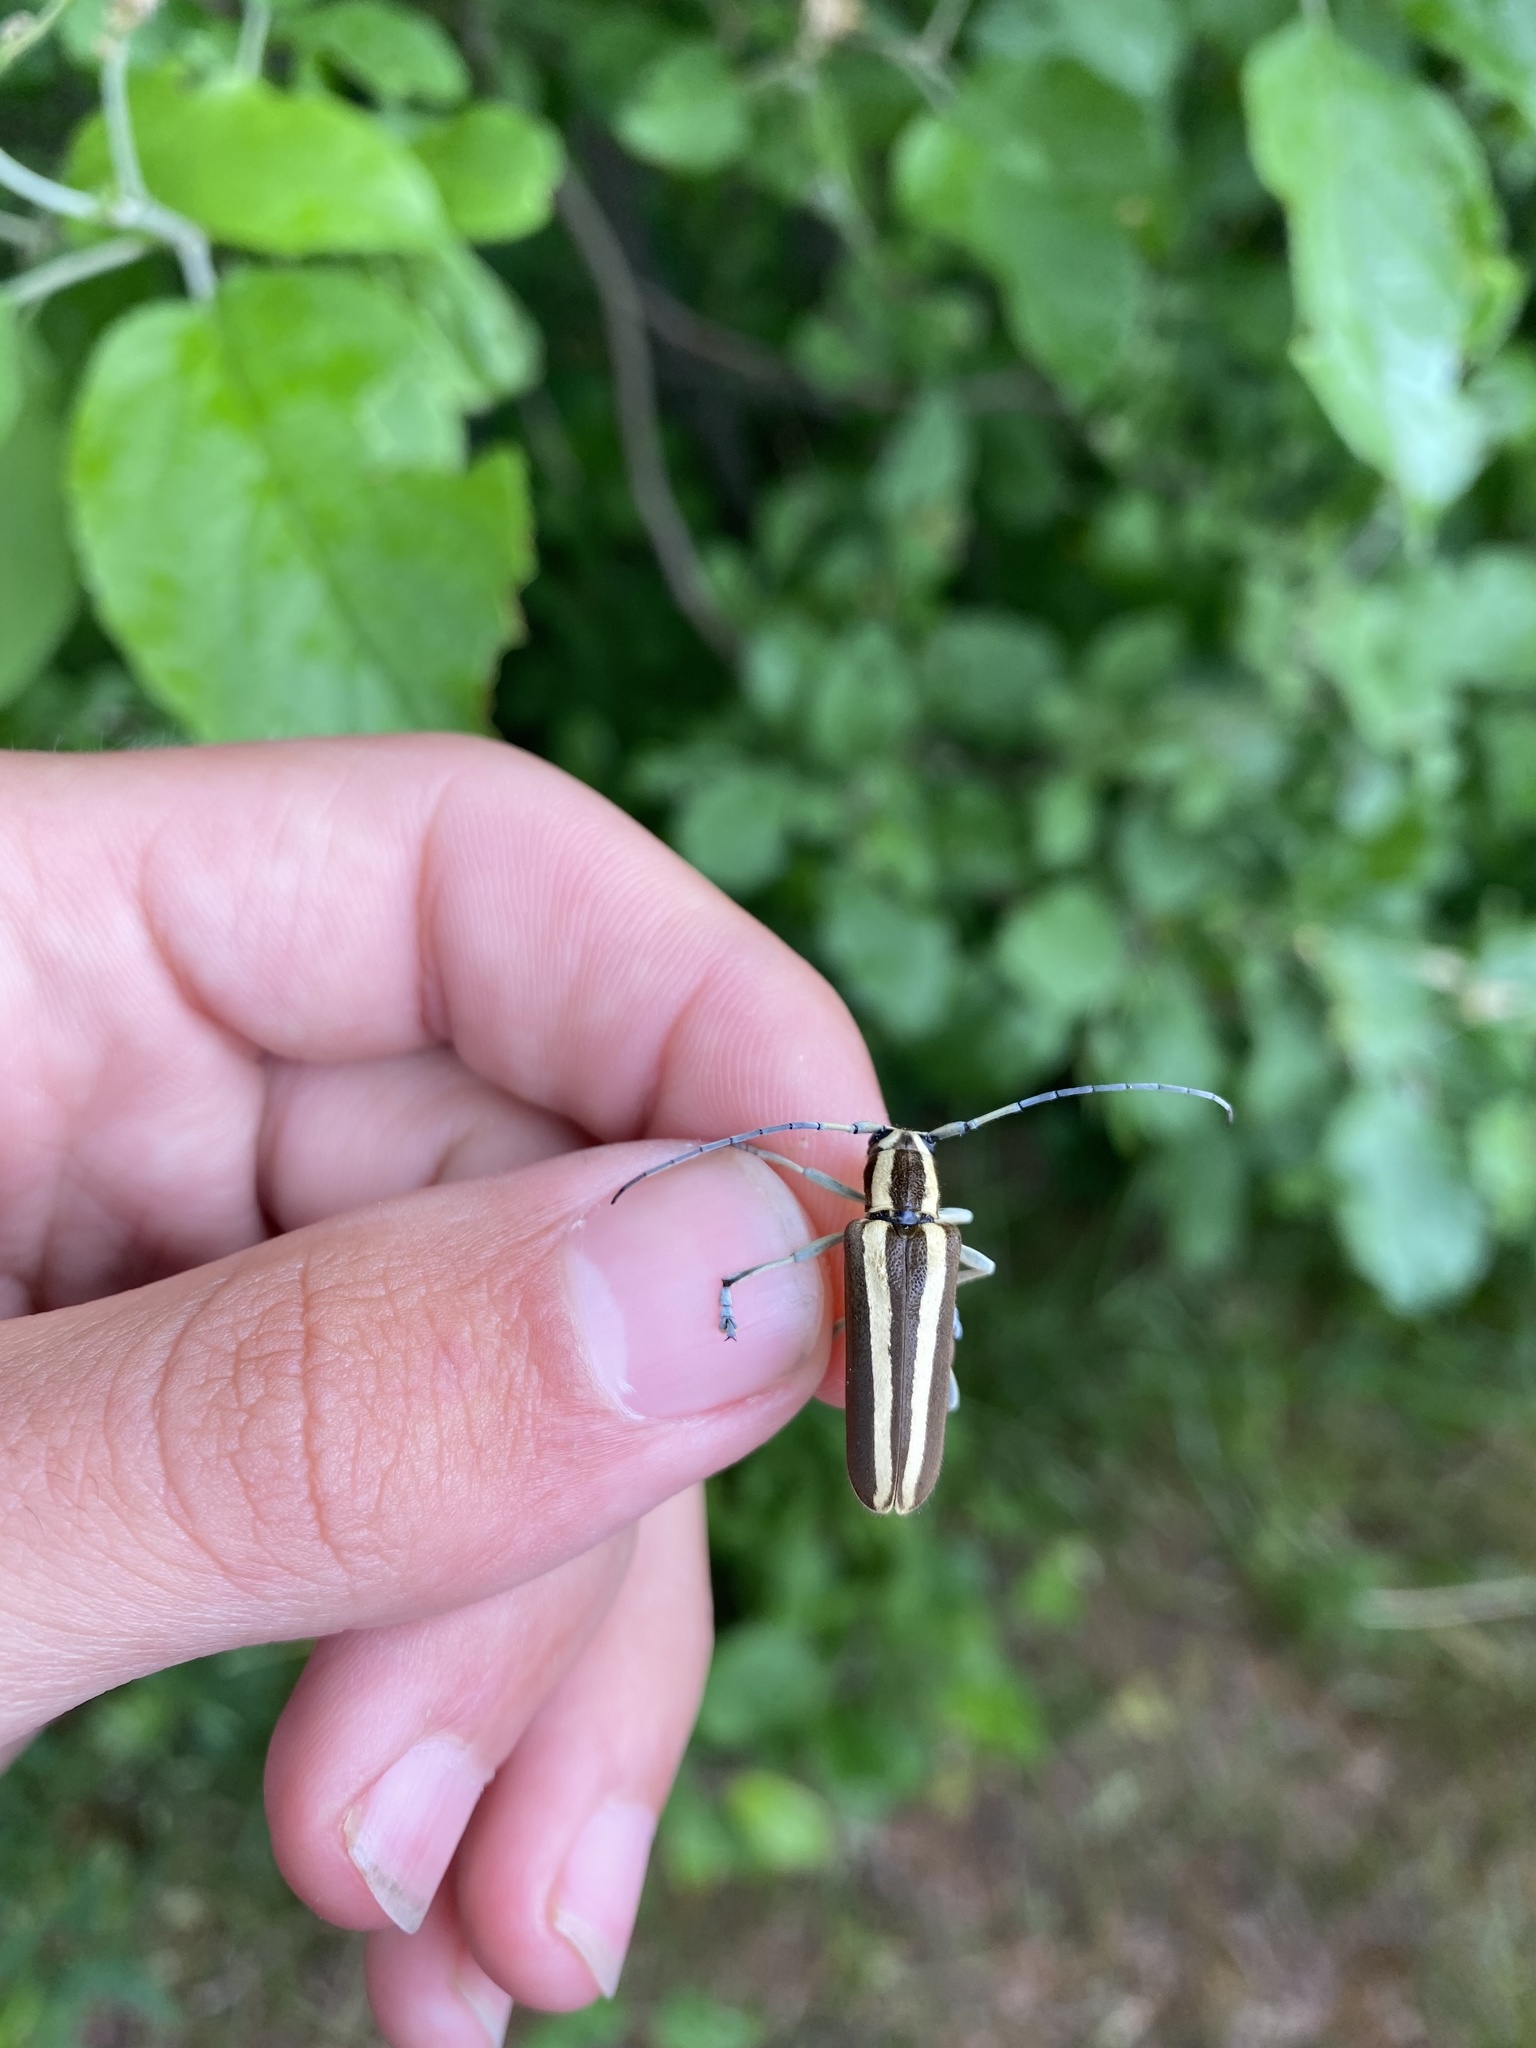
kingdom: Animalia
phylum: Arthropoda
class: Insecta
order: Coleoptera
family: Cerambycidae
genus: Saperda
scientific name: Saperda candida
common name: Round-headed borer
